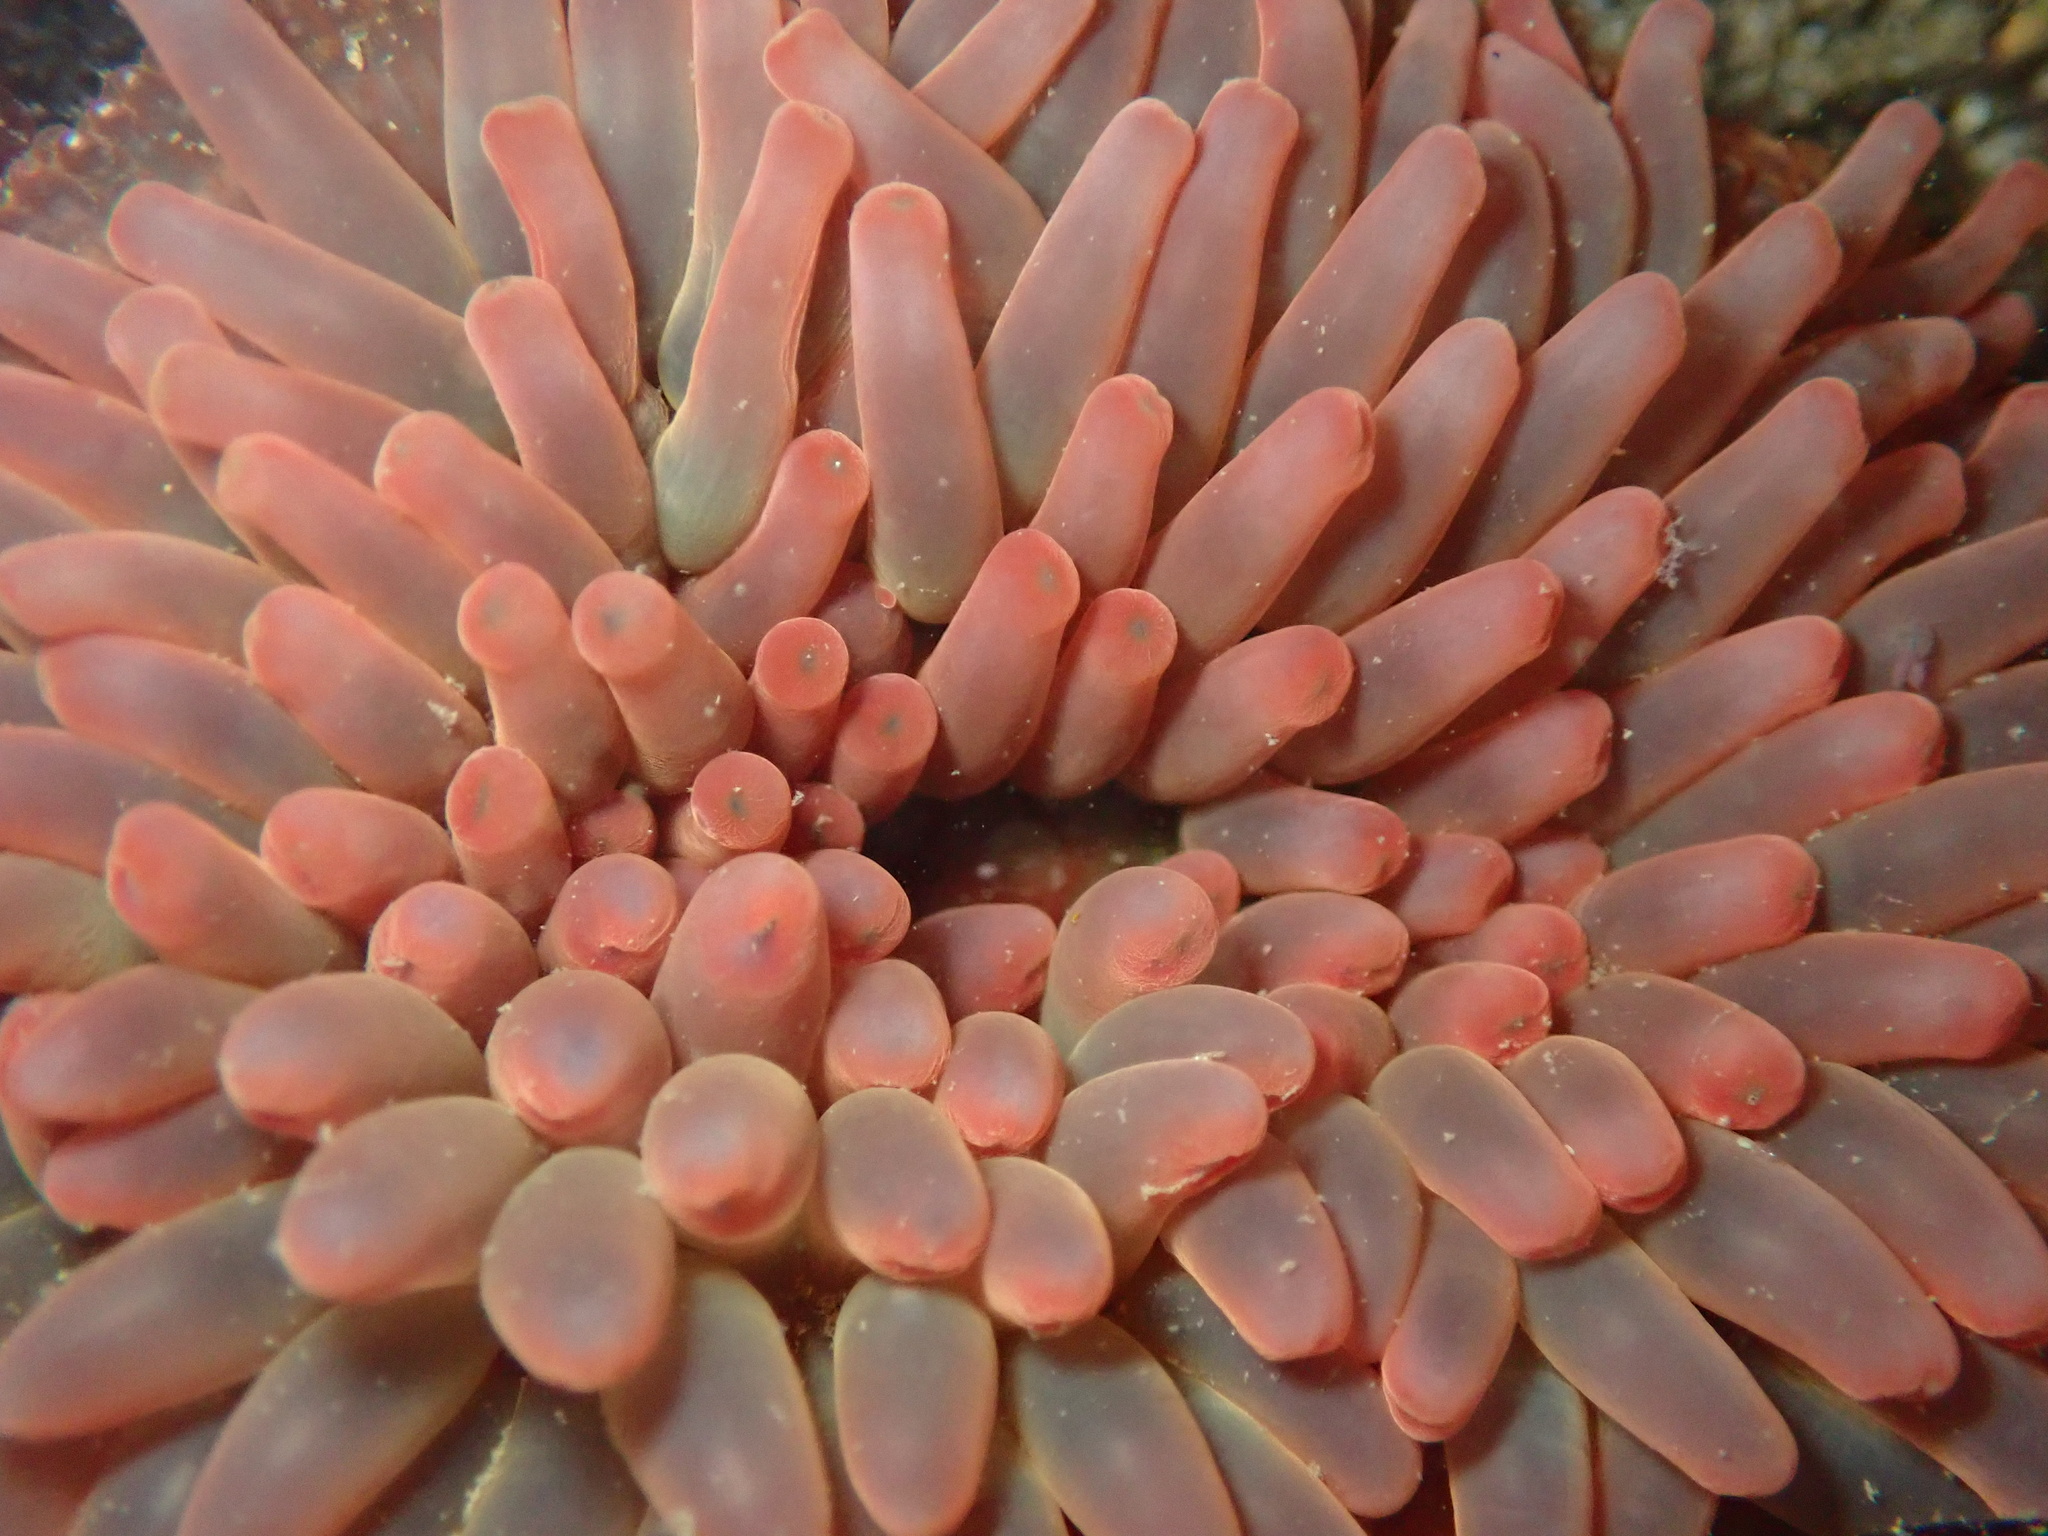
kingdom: Animalia
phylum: Cnidaria
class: Anthozoa
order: Actiniaria
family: Actiniidae
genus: Urticina
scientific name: Urticina clandestina
